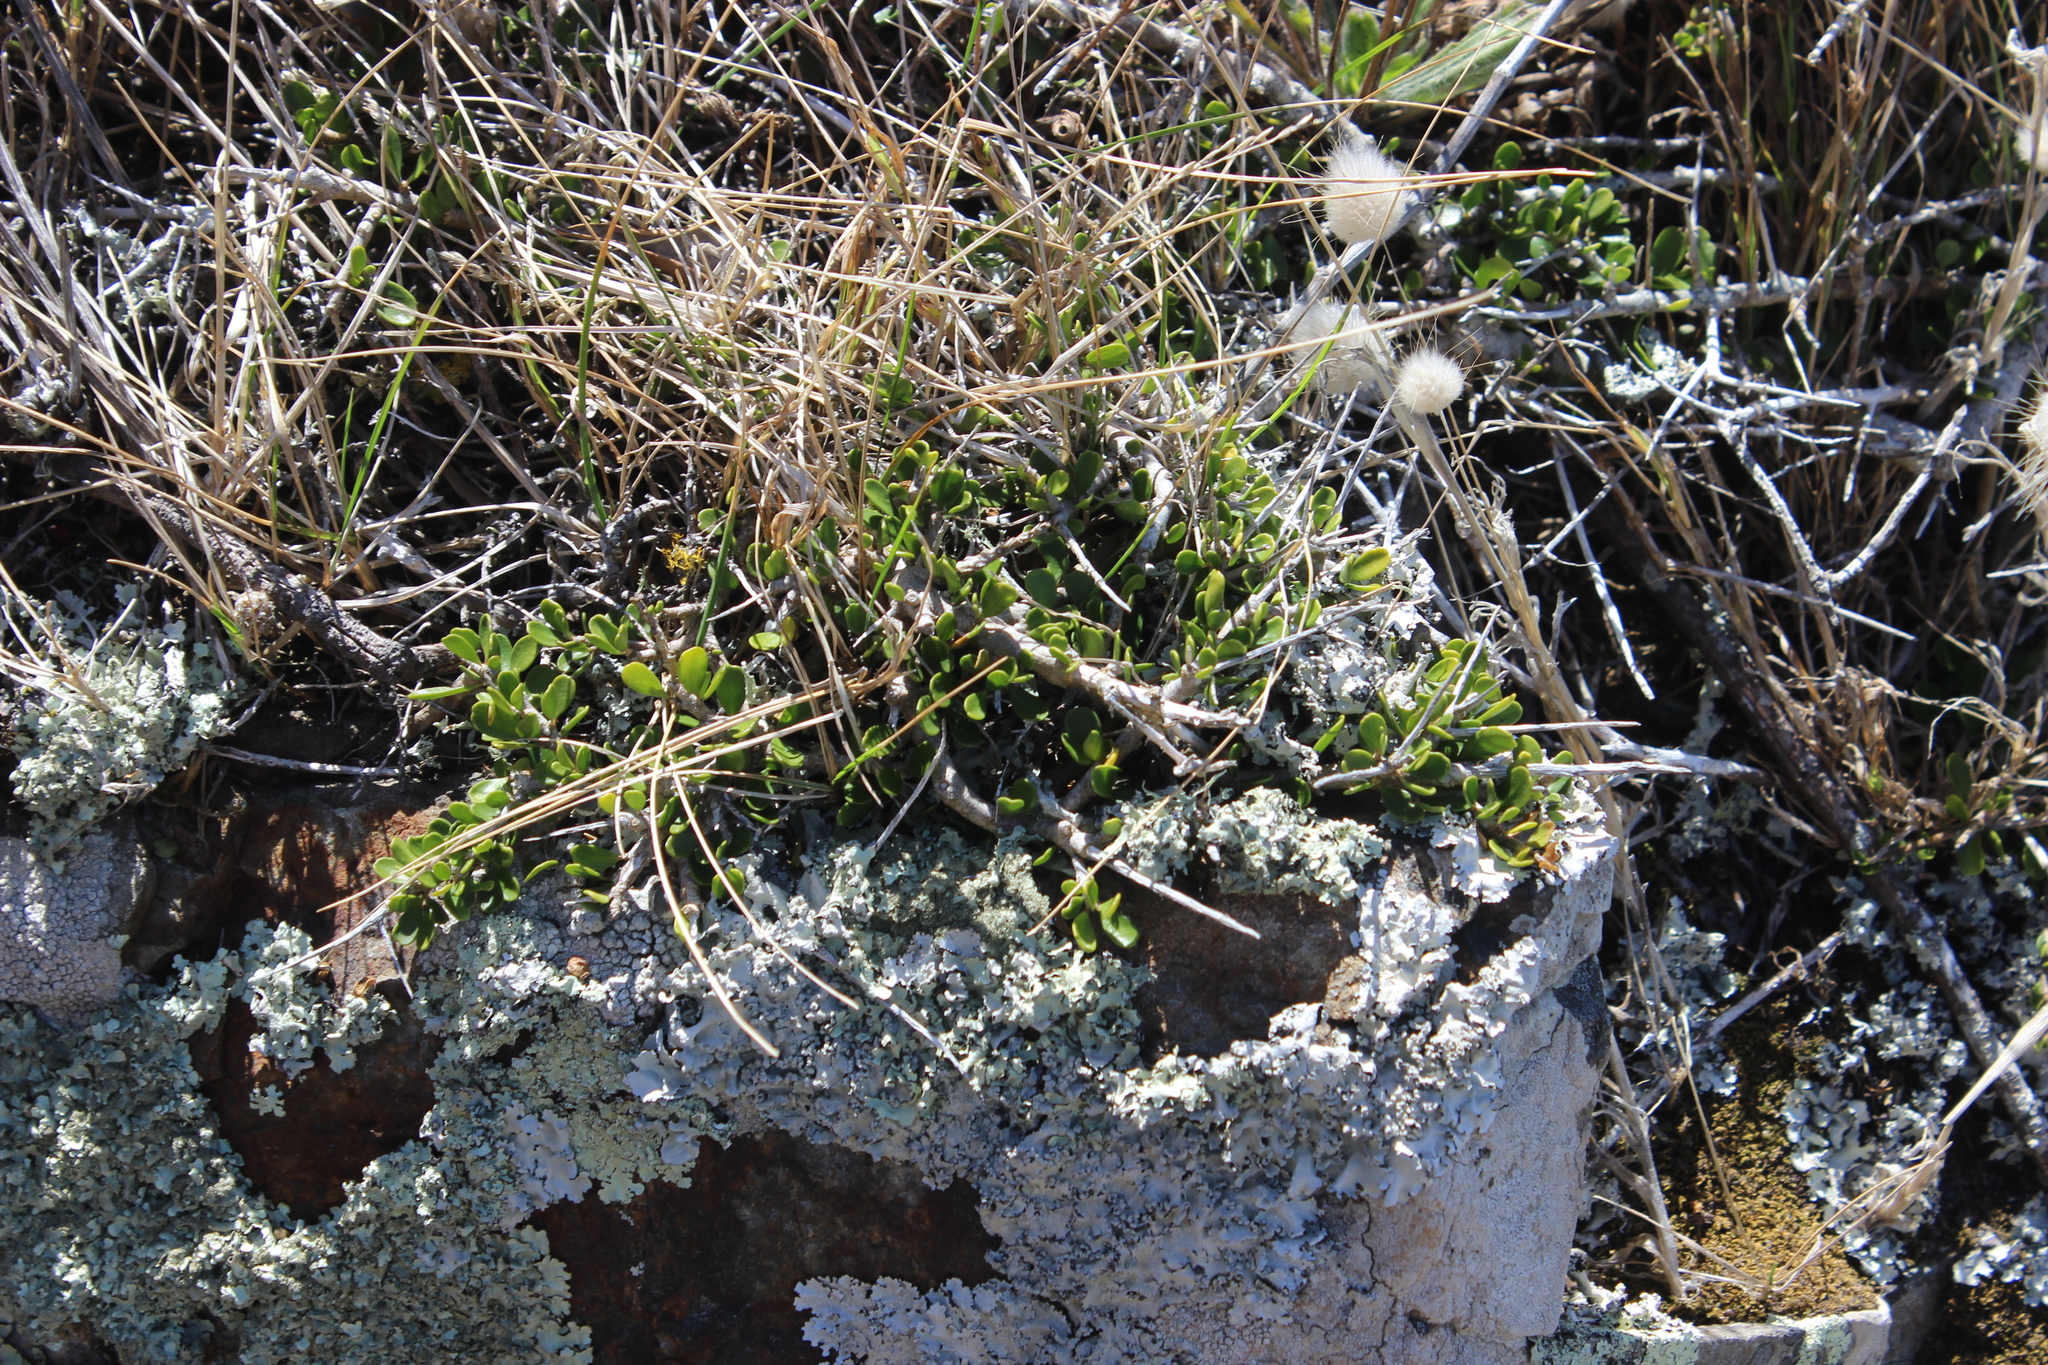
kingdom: Plantae
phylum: Tracheophyta
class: Magnoliopsida
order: Malpighiales
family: Violaceae
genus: Melicytus
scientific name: Melicytus crassifolius
